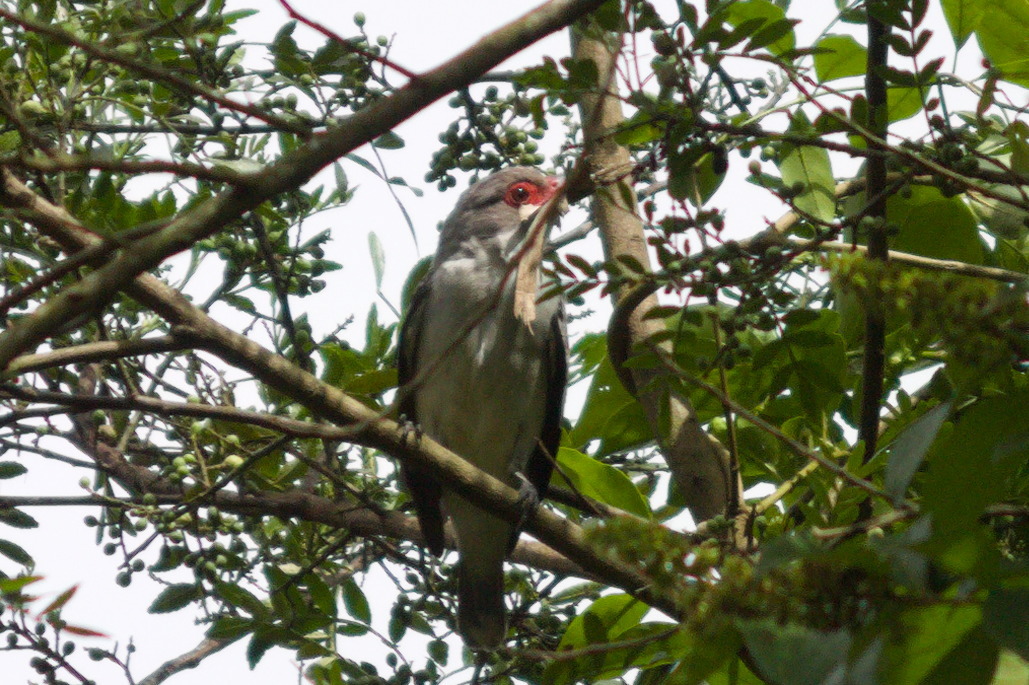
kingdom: Animalia
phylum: Chordata
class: Aves
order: Passeriformes
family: Cotingidae
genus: Tityra
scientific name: Tityra semifasciata
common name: Masked tityra
